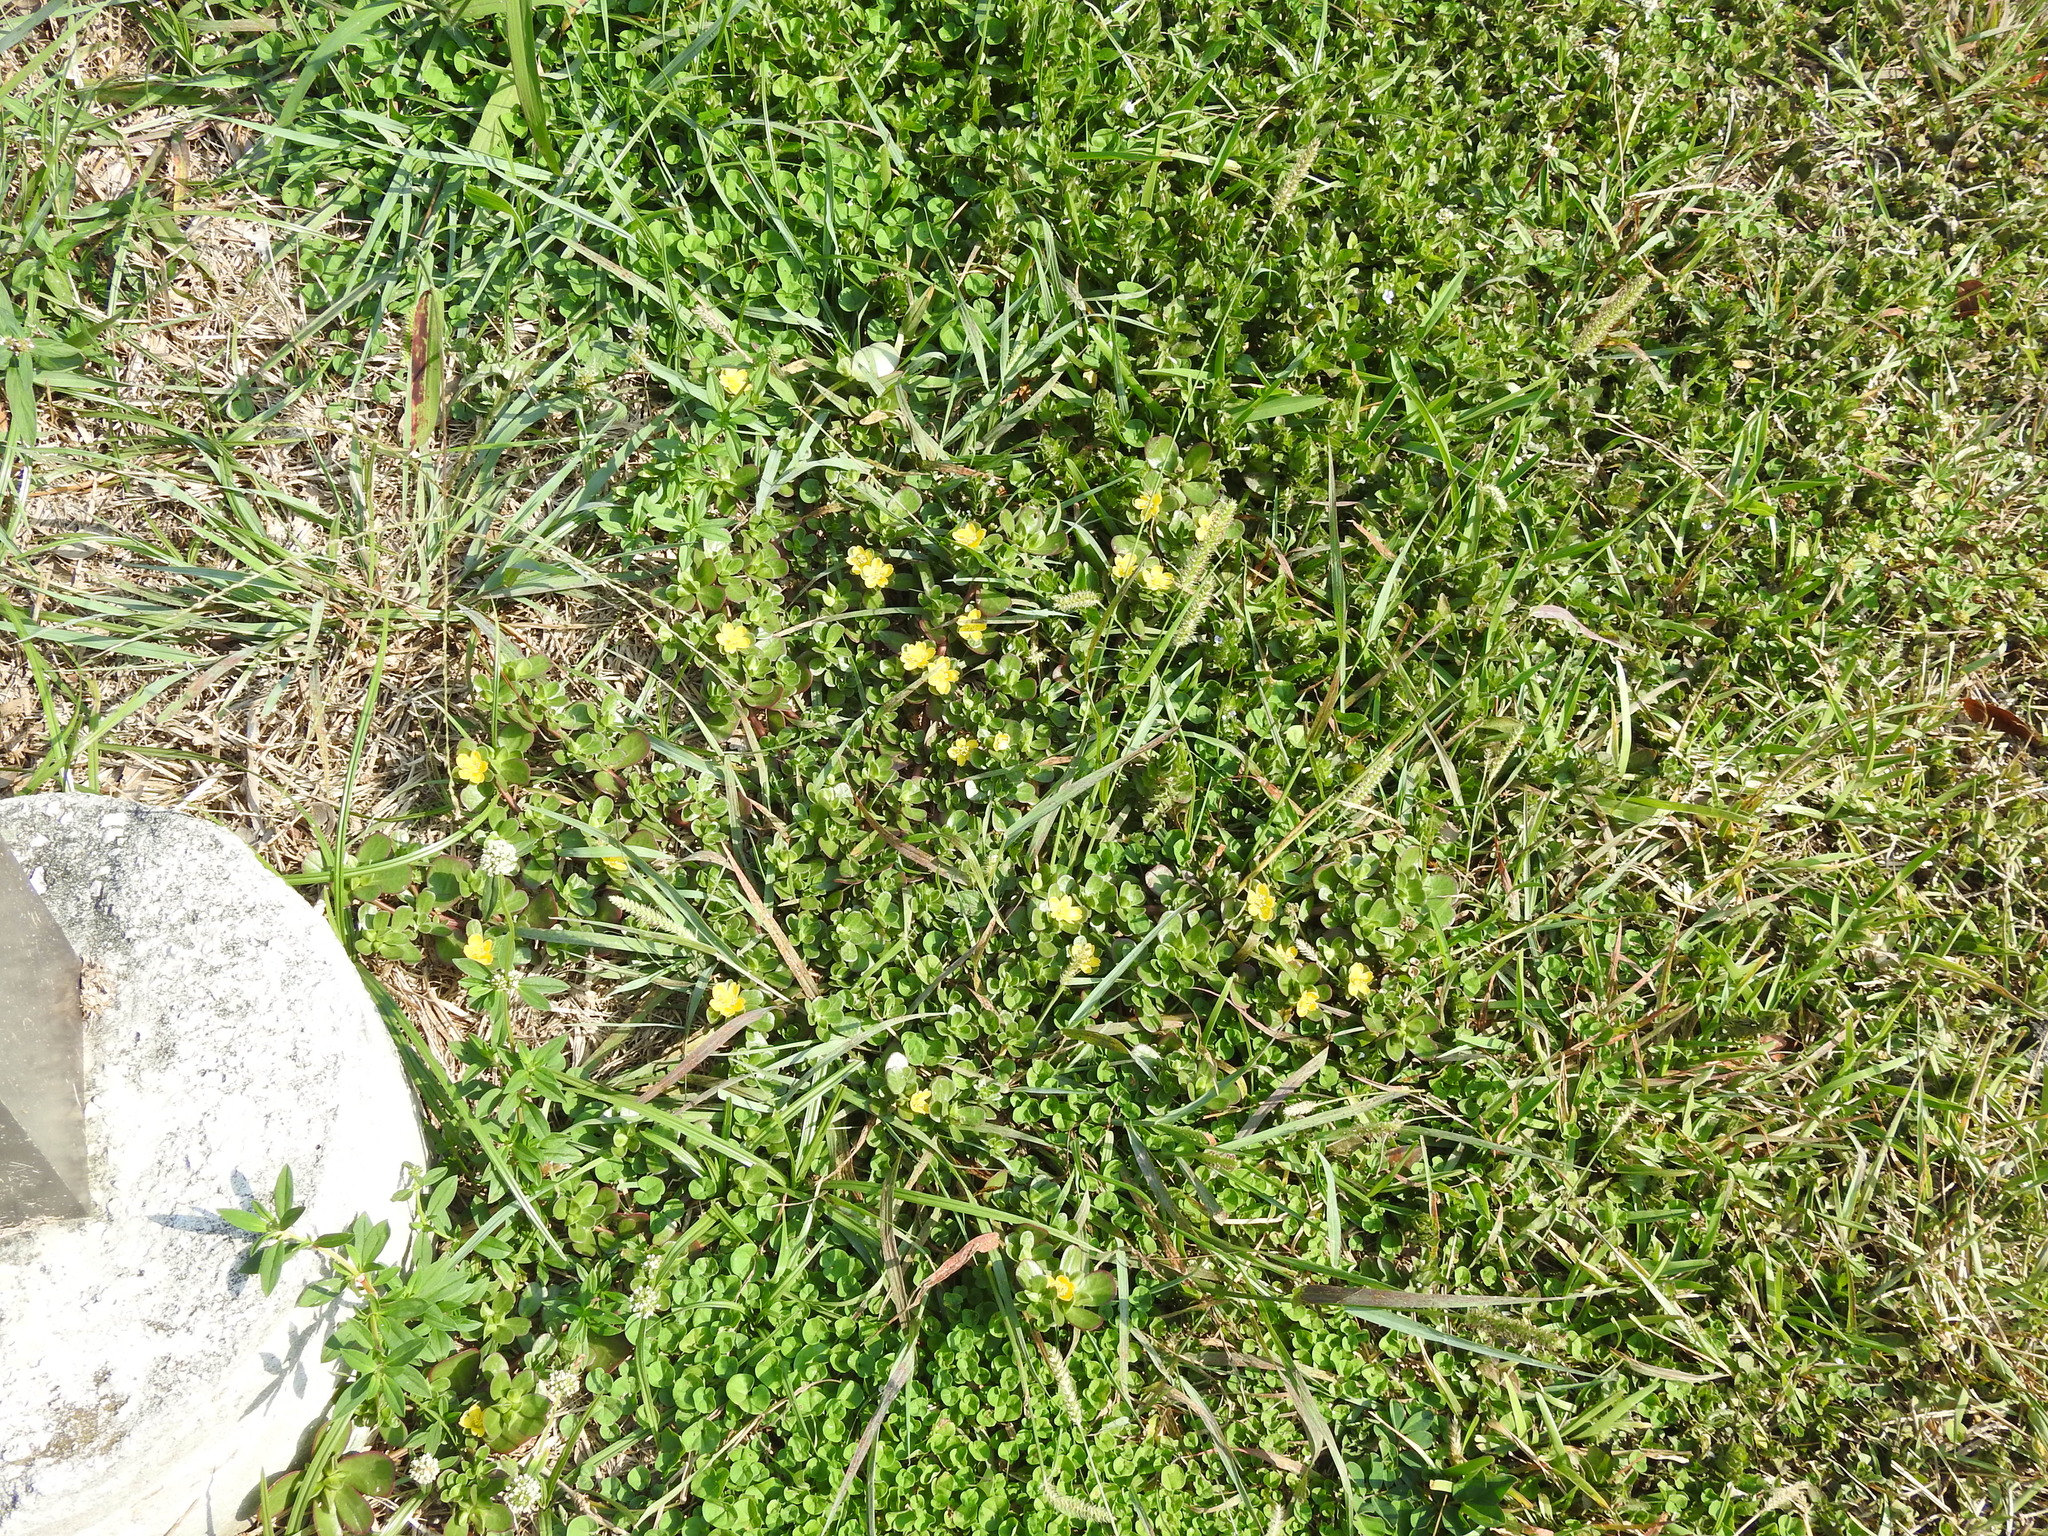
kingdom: Plantae
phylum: Tracheophyta
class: Magnoliopsida
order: Caryophyllales
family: Portulacaceae
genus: Portulaca
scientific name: Portulaca oleracea
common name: Common purslane
